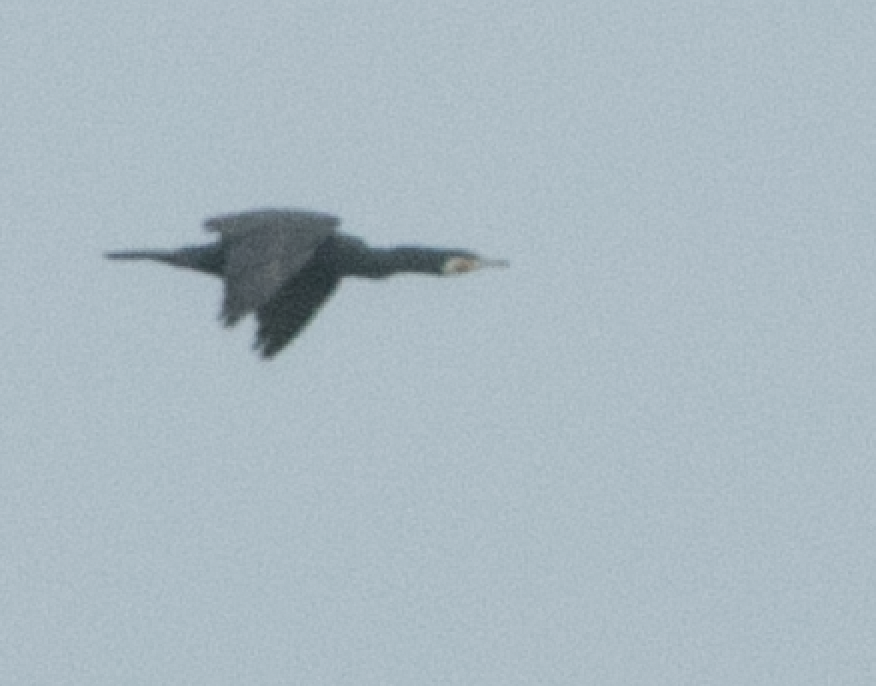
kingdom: Animalia
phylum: Chordata
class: Aves
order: Suliformes
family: Phalacrocoracidae
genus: Phalacrocorax
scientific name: Phalacrocorax carbo
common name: Great cormorant
